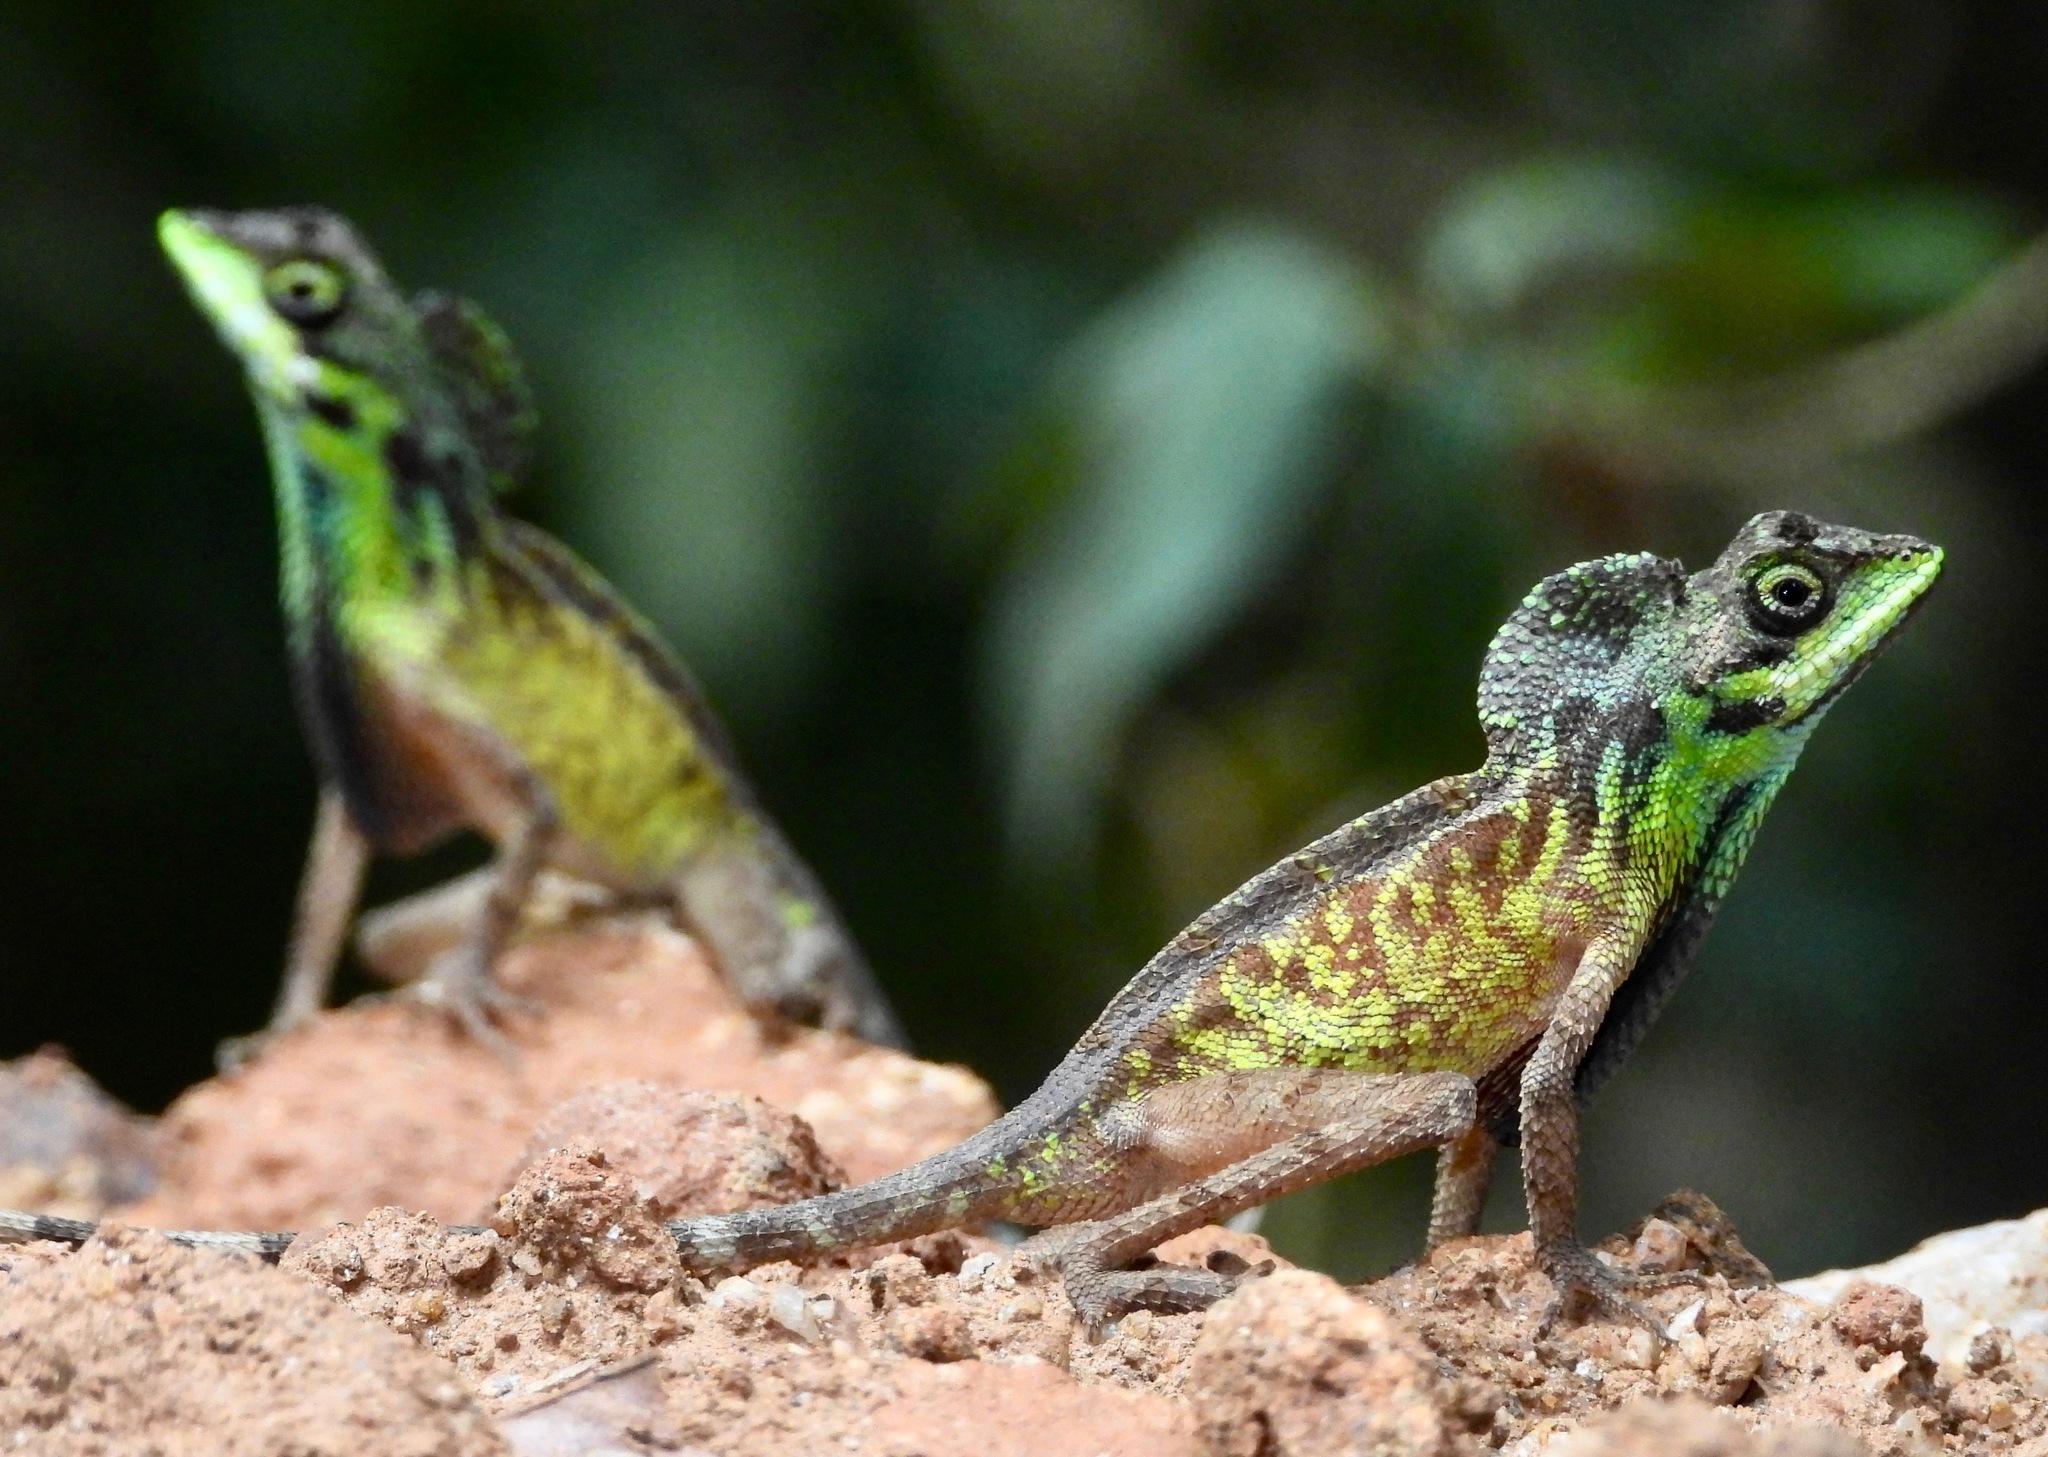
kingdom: Animalia
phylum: Chordata
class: Squamata
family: Agamidae
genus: Otocryptis
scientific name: Otocryptis nigristigma
